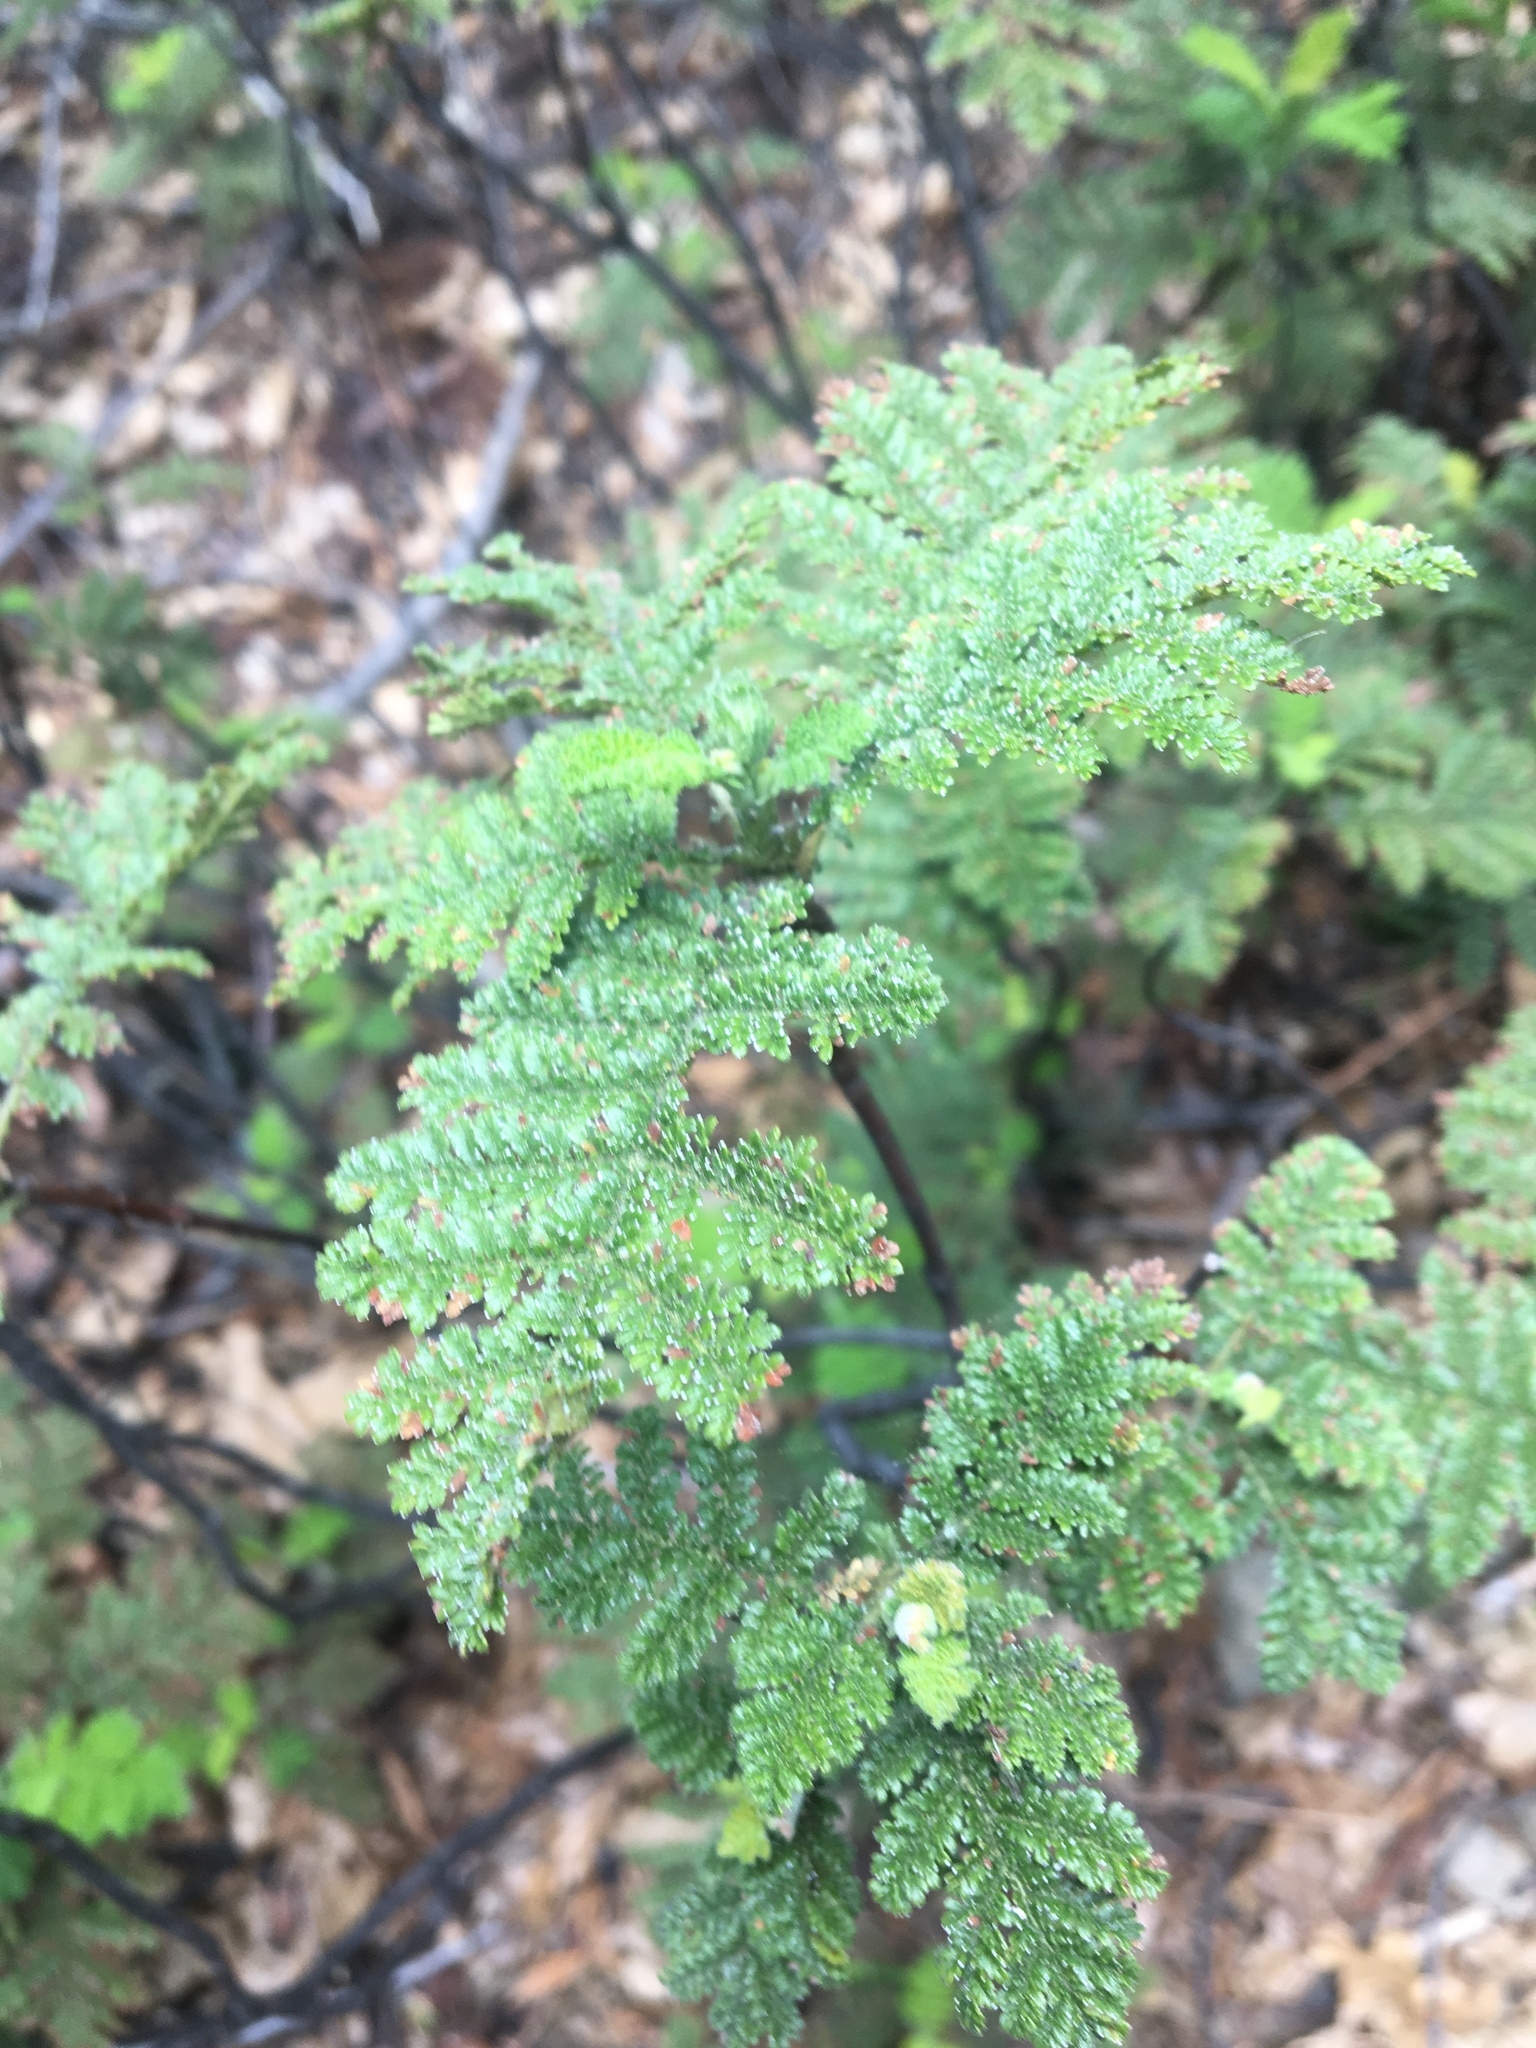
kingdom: Plantae
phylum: Tracheophyta
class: Magnoliopsida
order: Rosales
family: Rosaceae
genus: Chamaebatia
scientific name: Chamaebatia foliolosa
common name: Mountain misery
